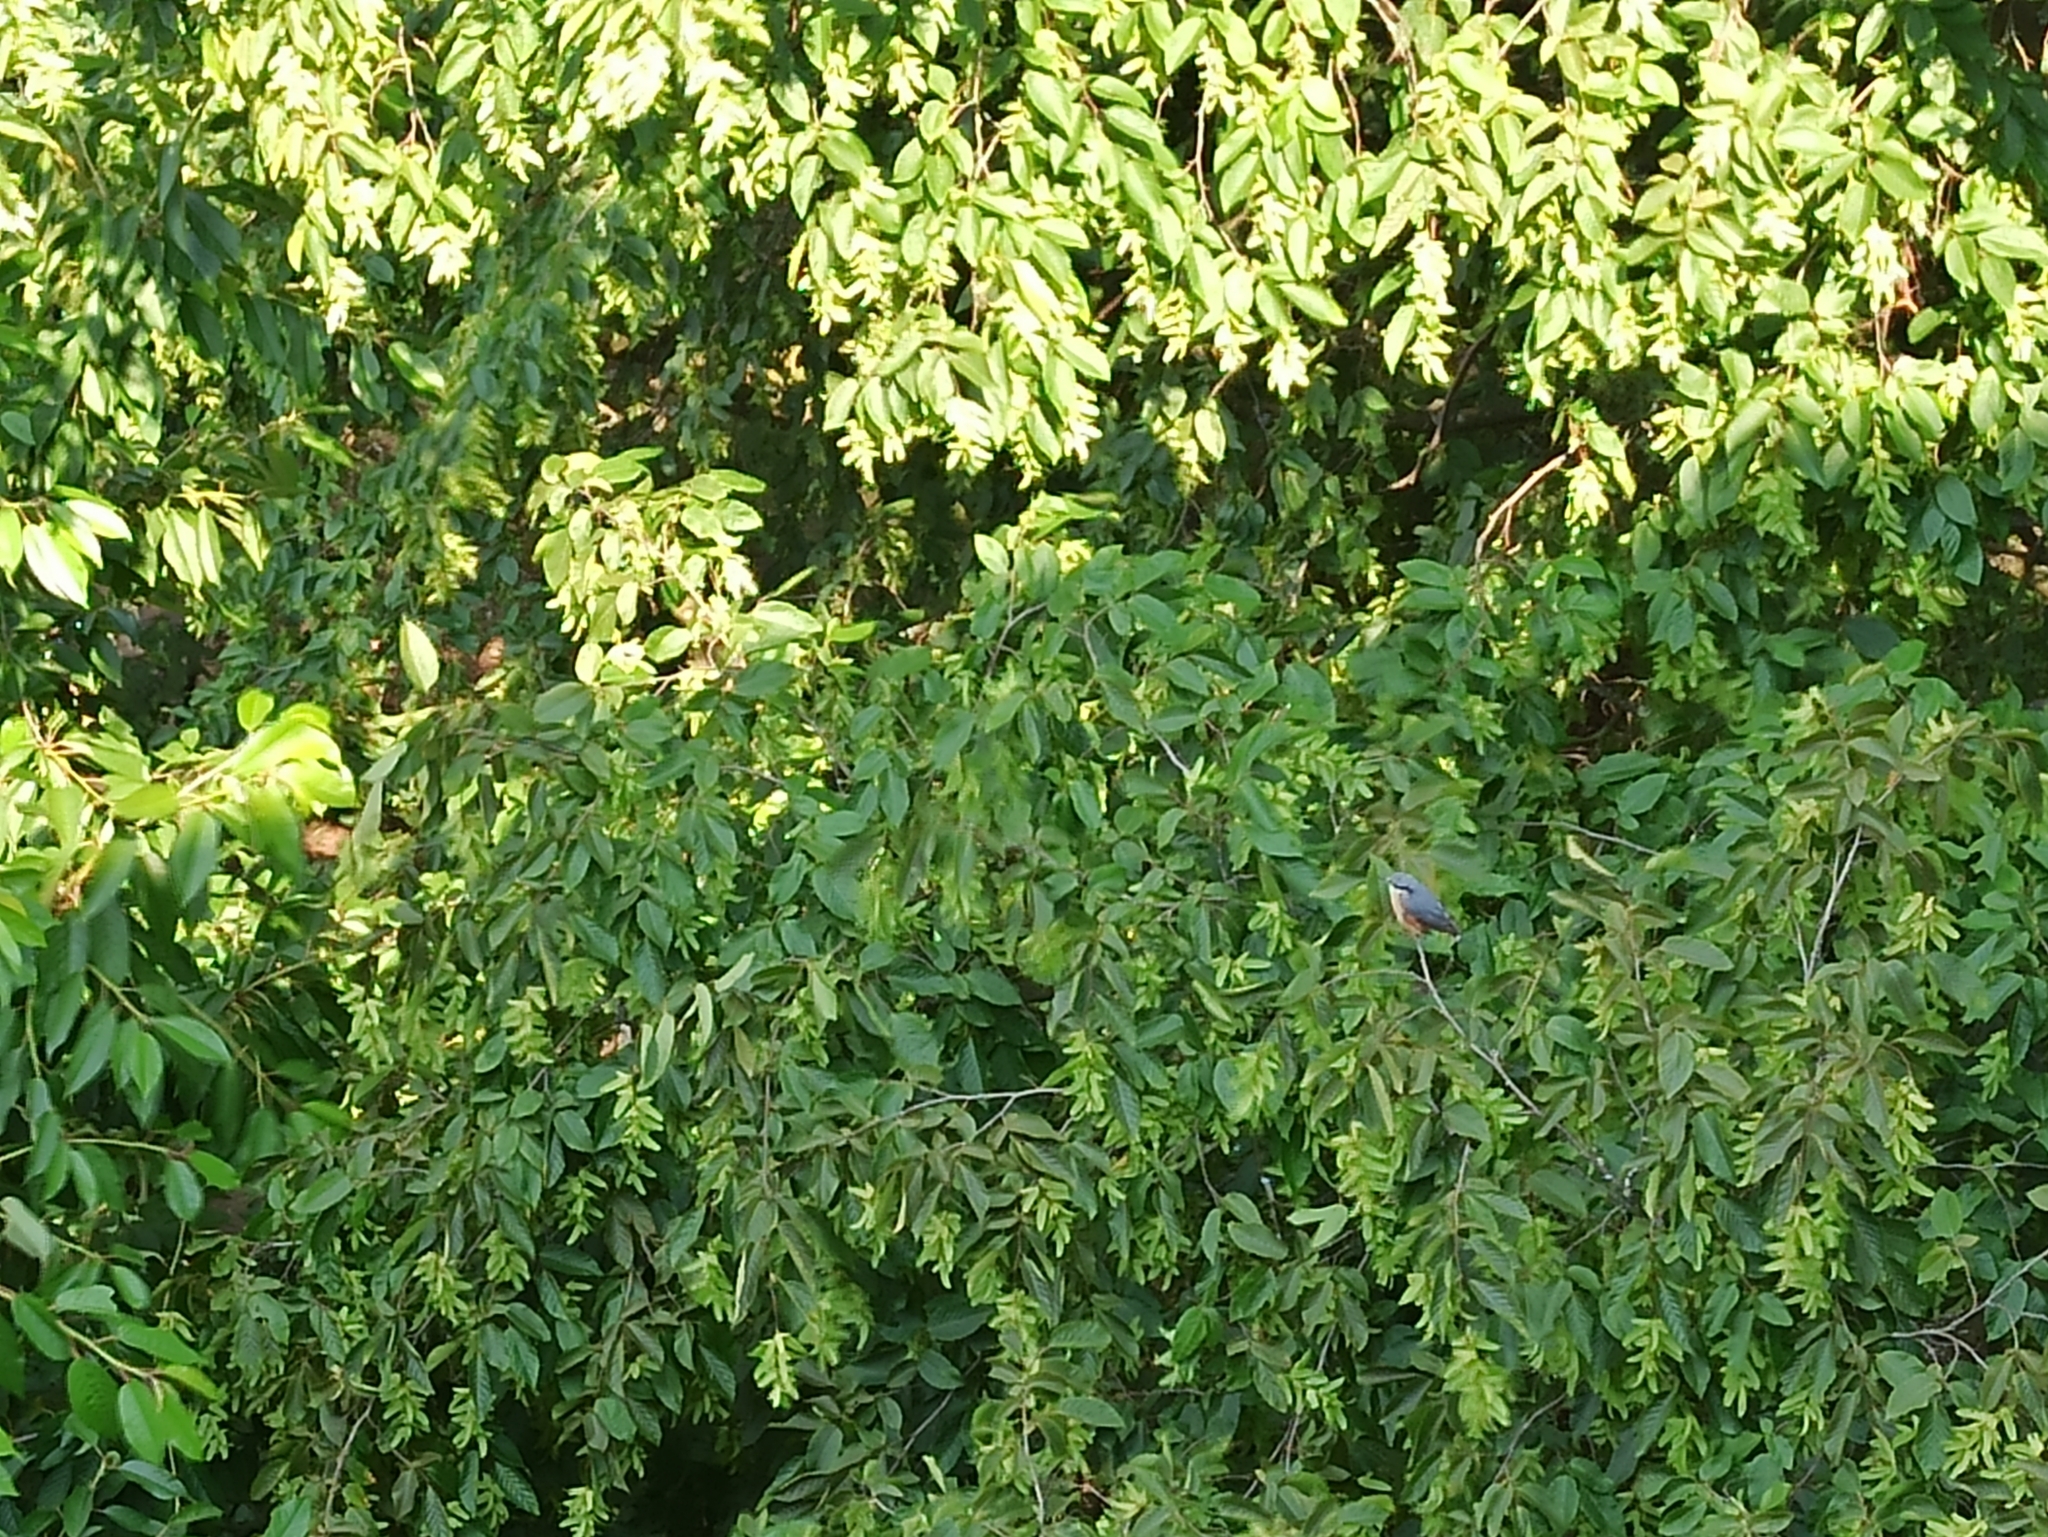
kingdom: Animalia
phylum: Chordata
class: Aves
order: Passeriformes
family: Sittidae
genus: Sitta
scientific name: Sitta europaea
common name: Eurasian nuthatch
